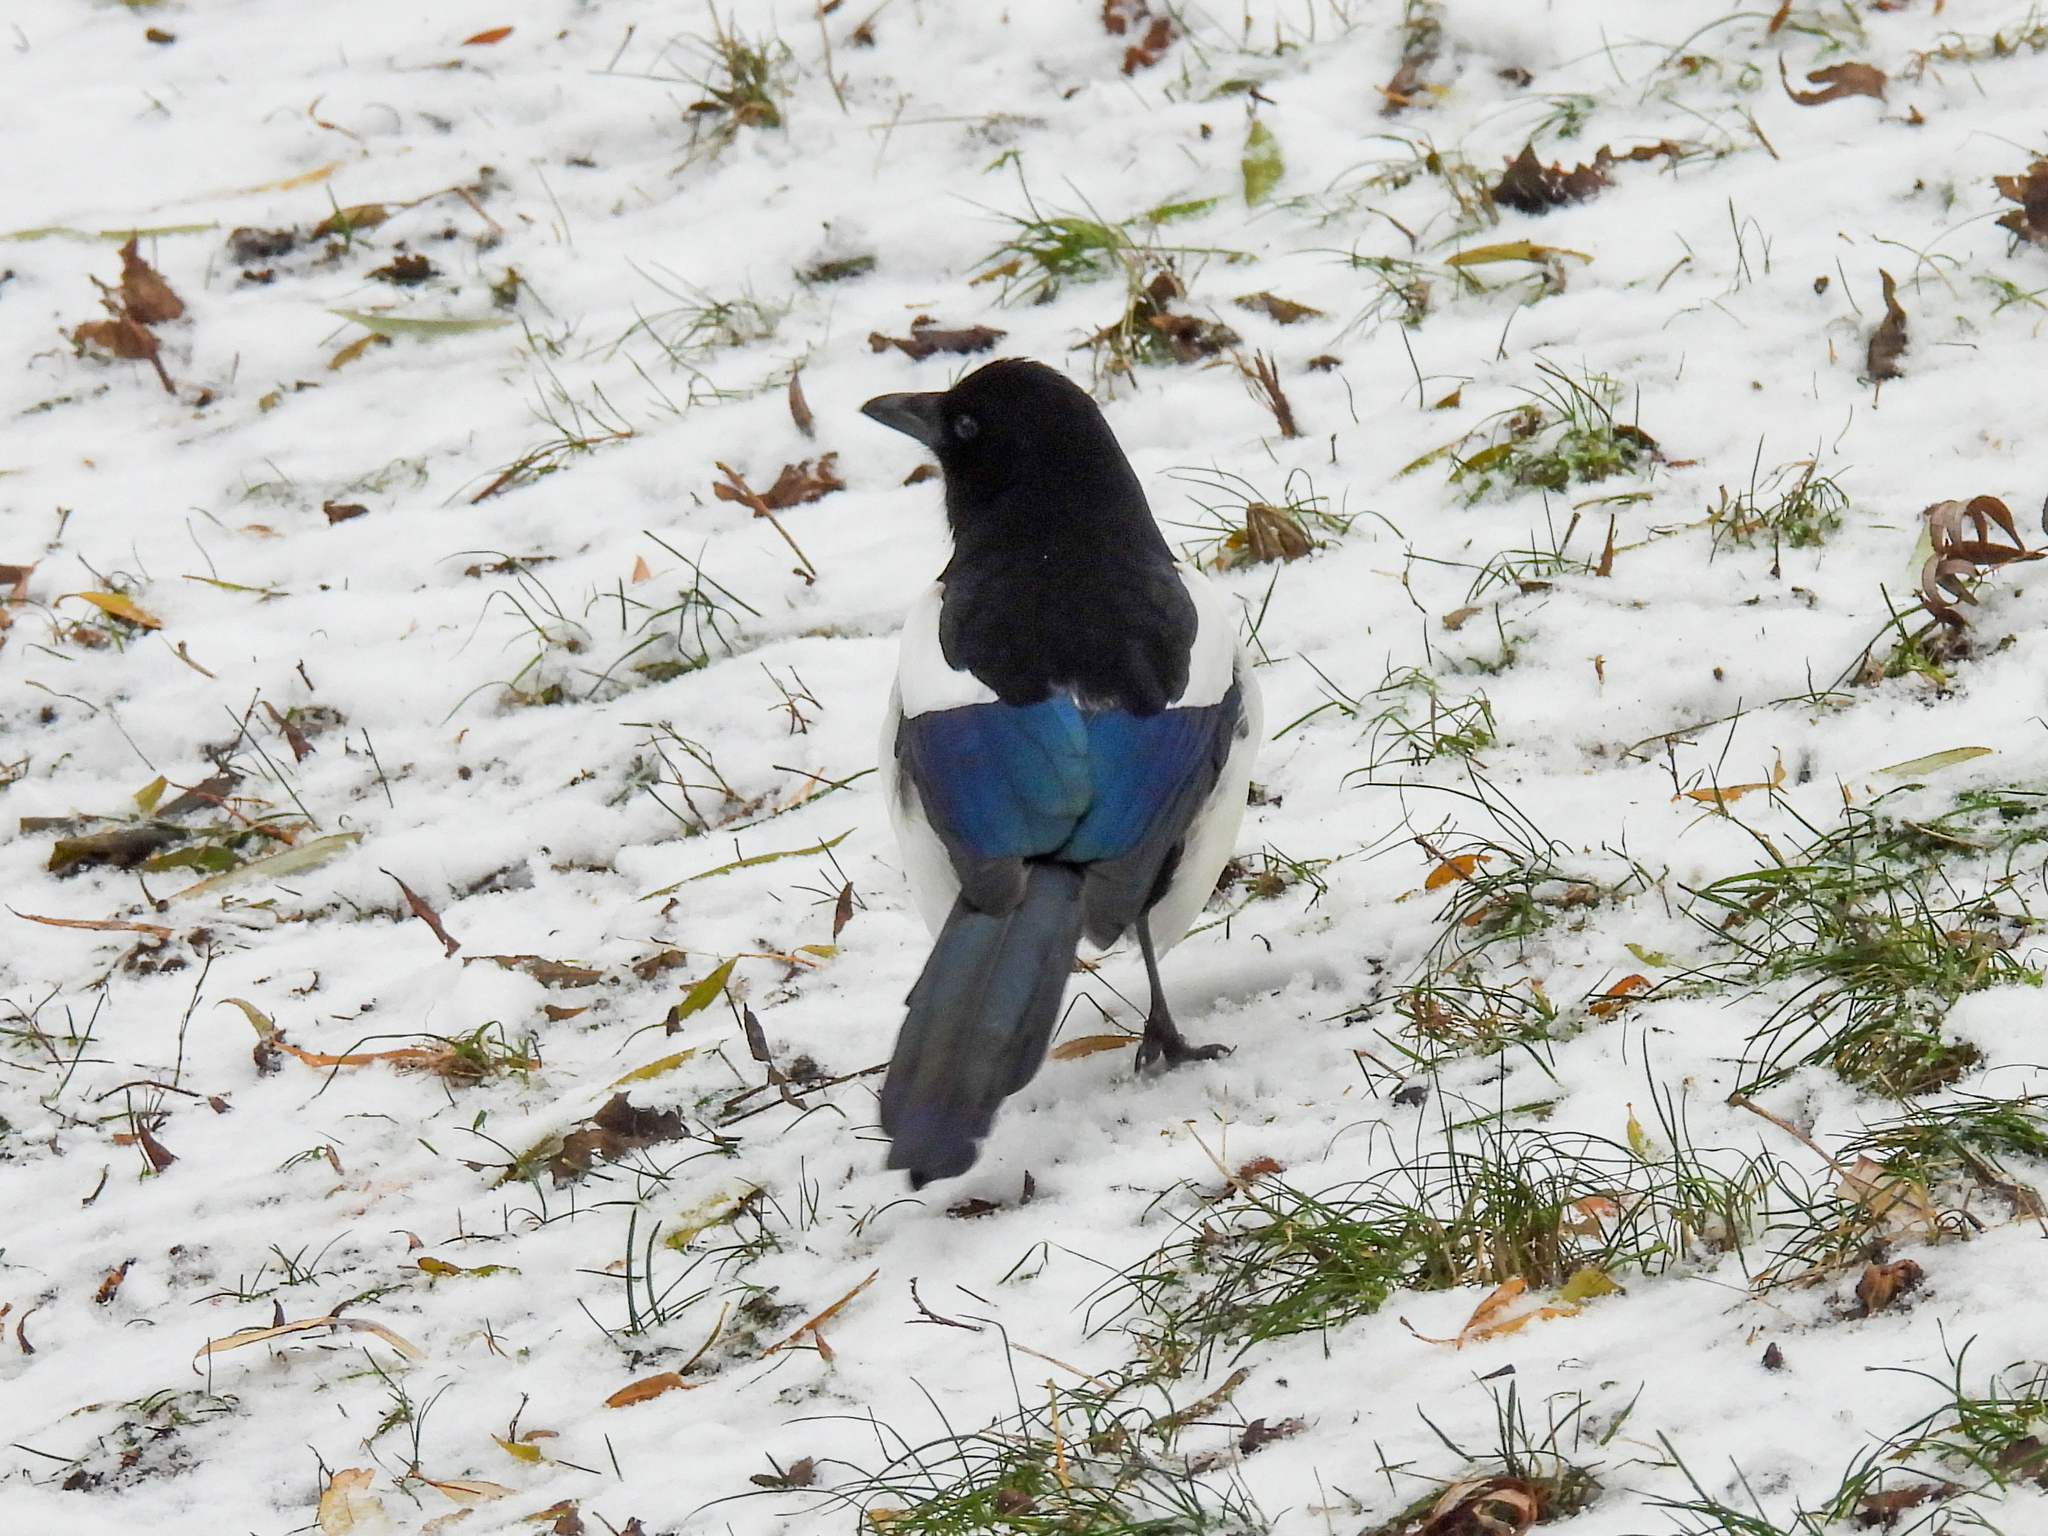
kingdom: Animalia
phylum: Chordata
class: Aves
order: Passeriformes
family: Corvidae
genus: Pica
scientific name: Pica pica
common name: Eurasian magpie
